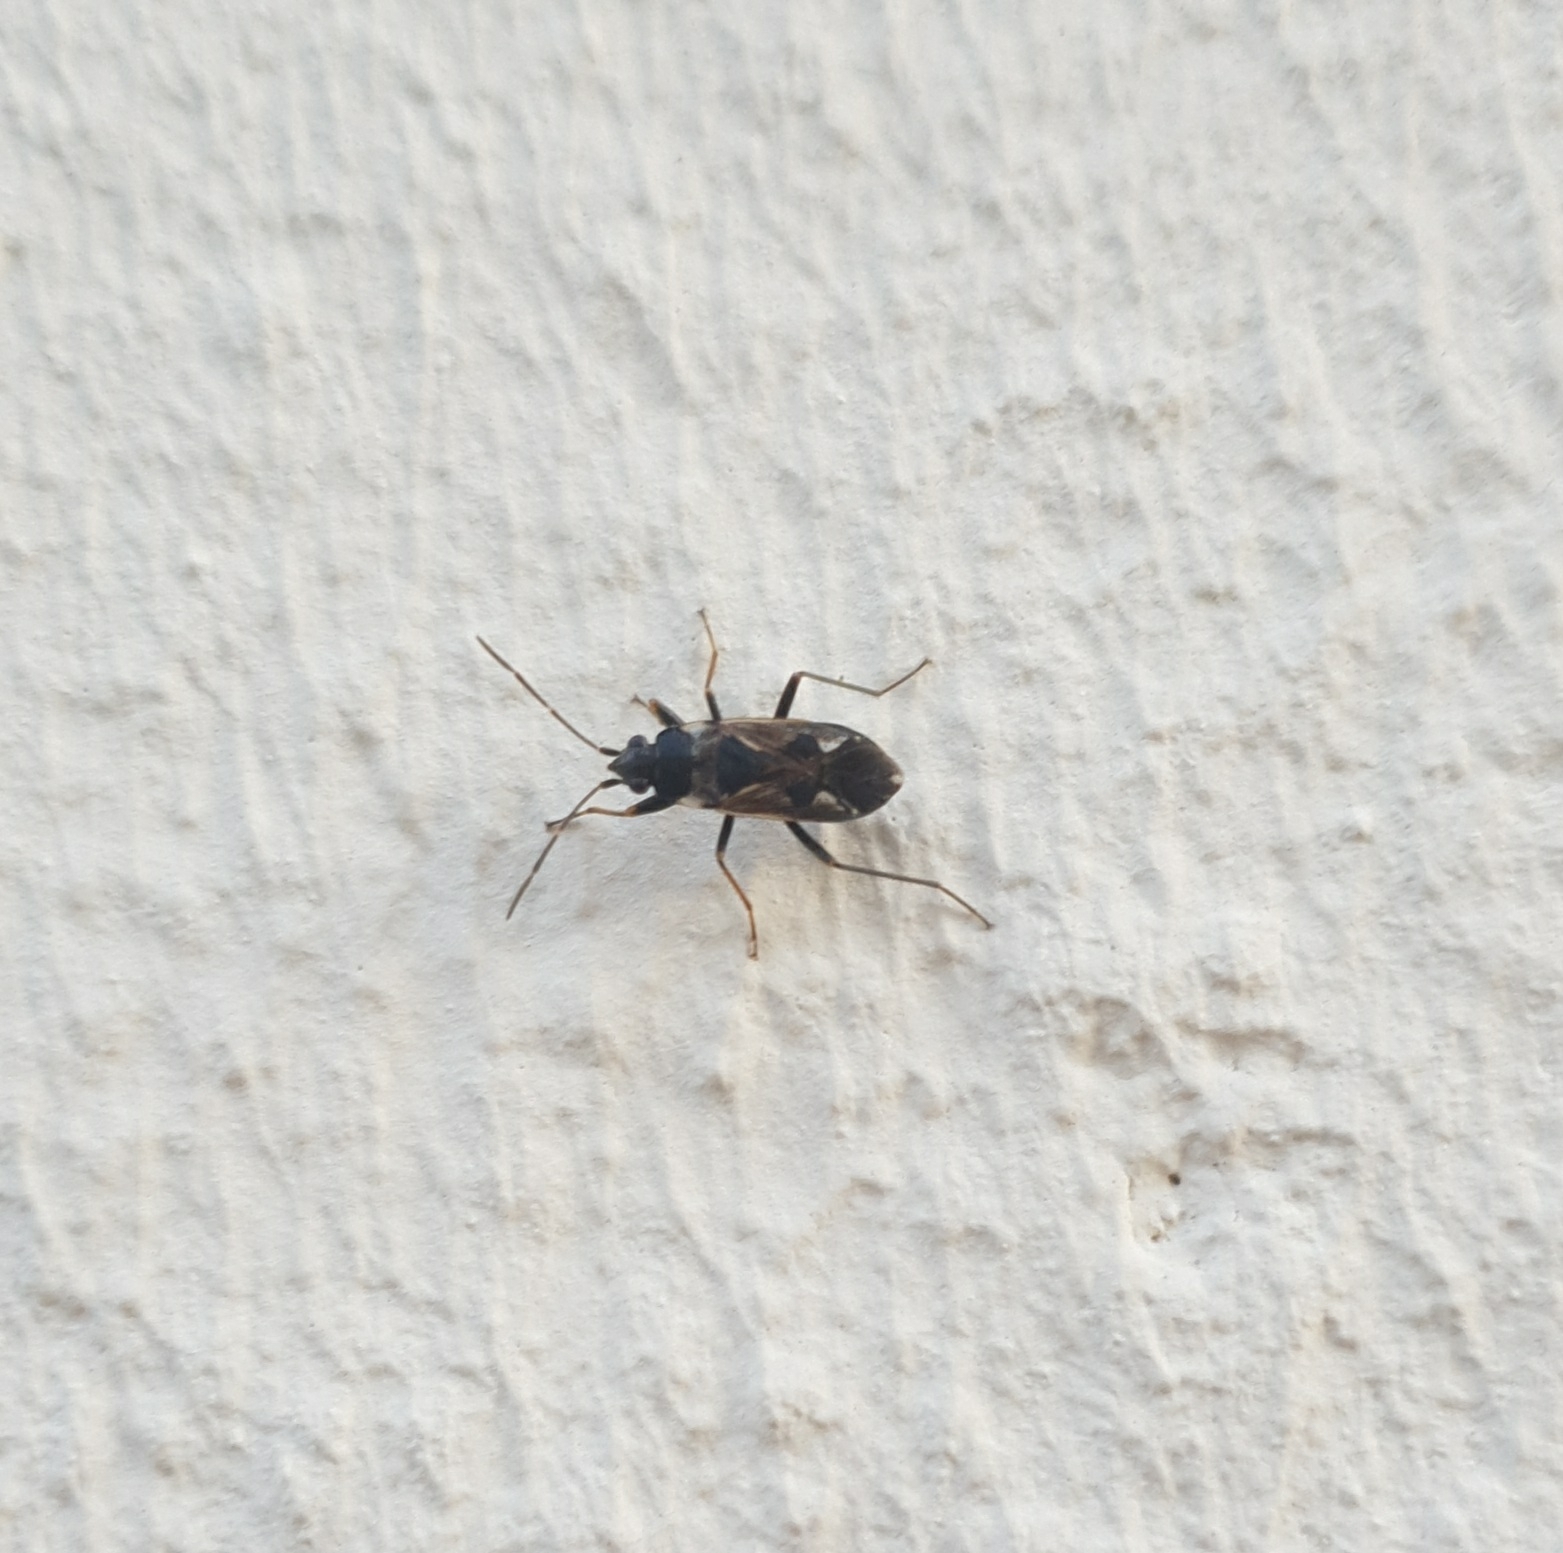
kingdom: Animalia
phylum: Arthropoda
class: Insecta
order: Hemiptera
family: Rhyparochromidae
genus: Rhyparochromus
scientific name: Rhyparochromus vulgaris
